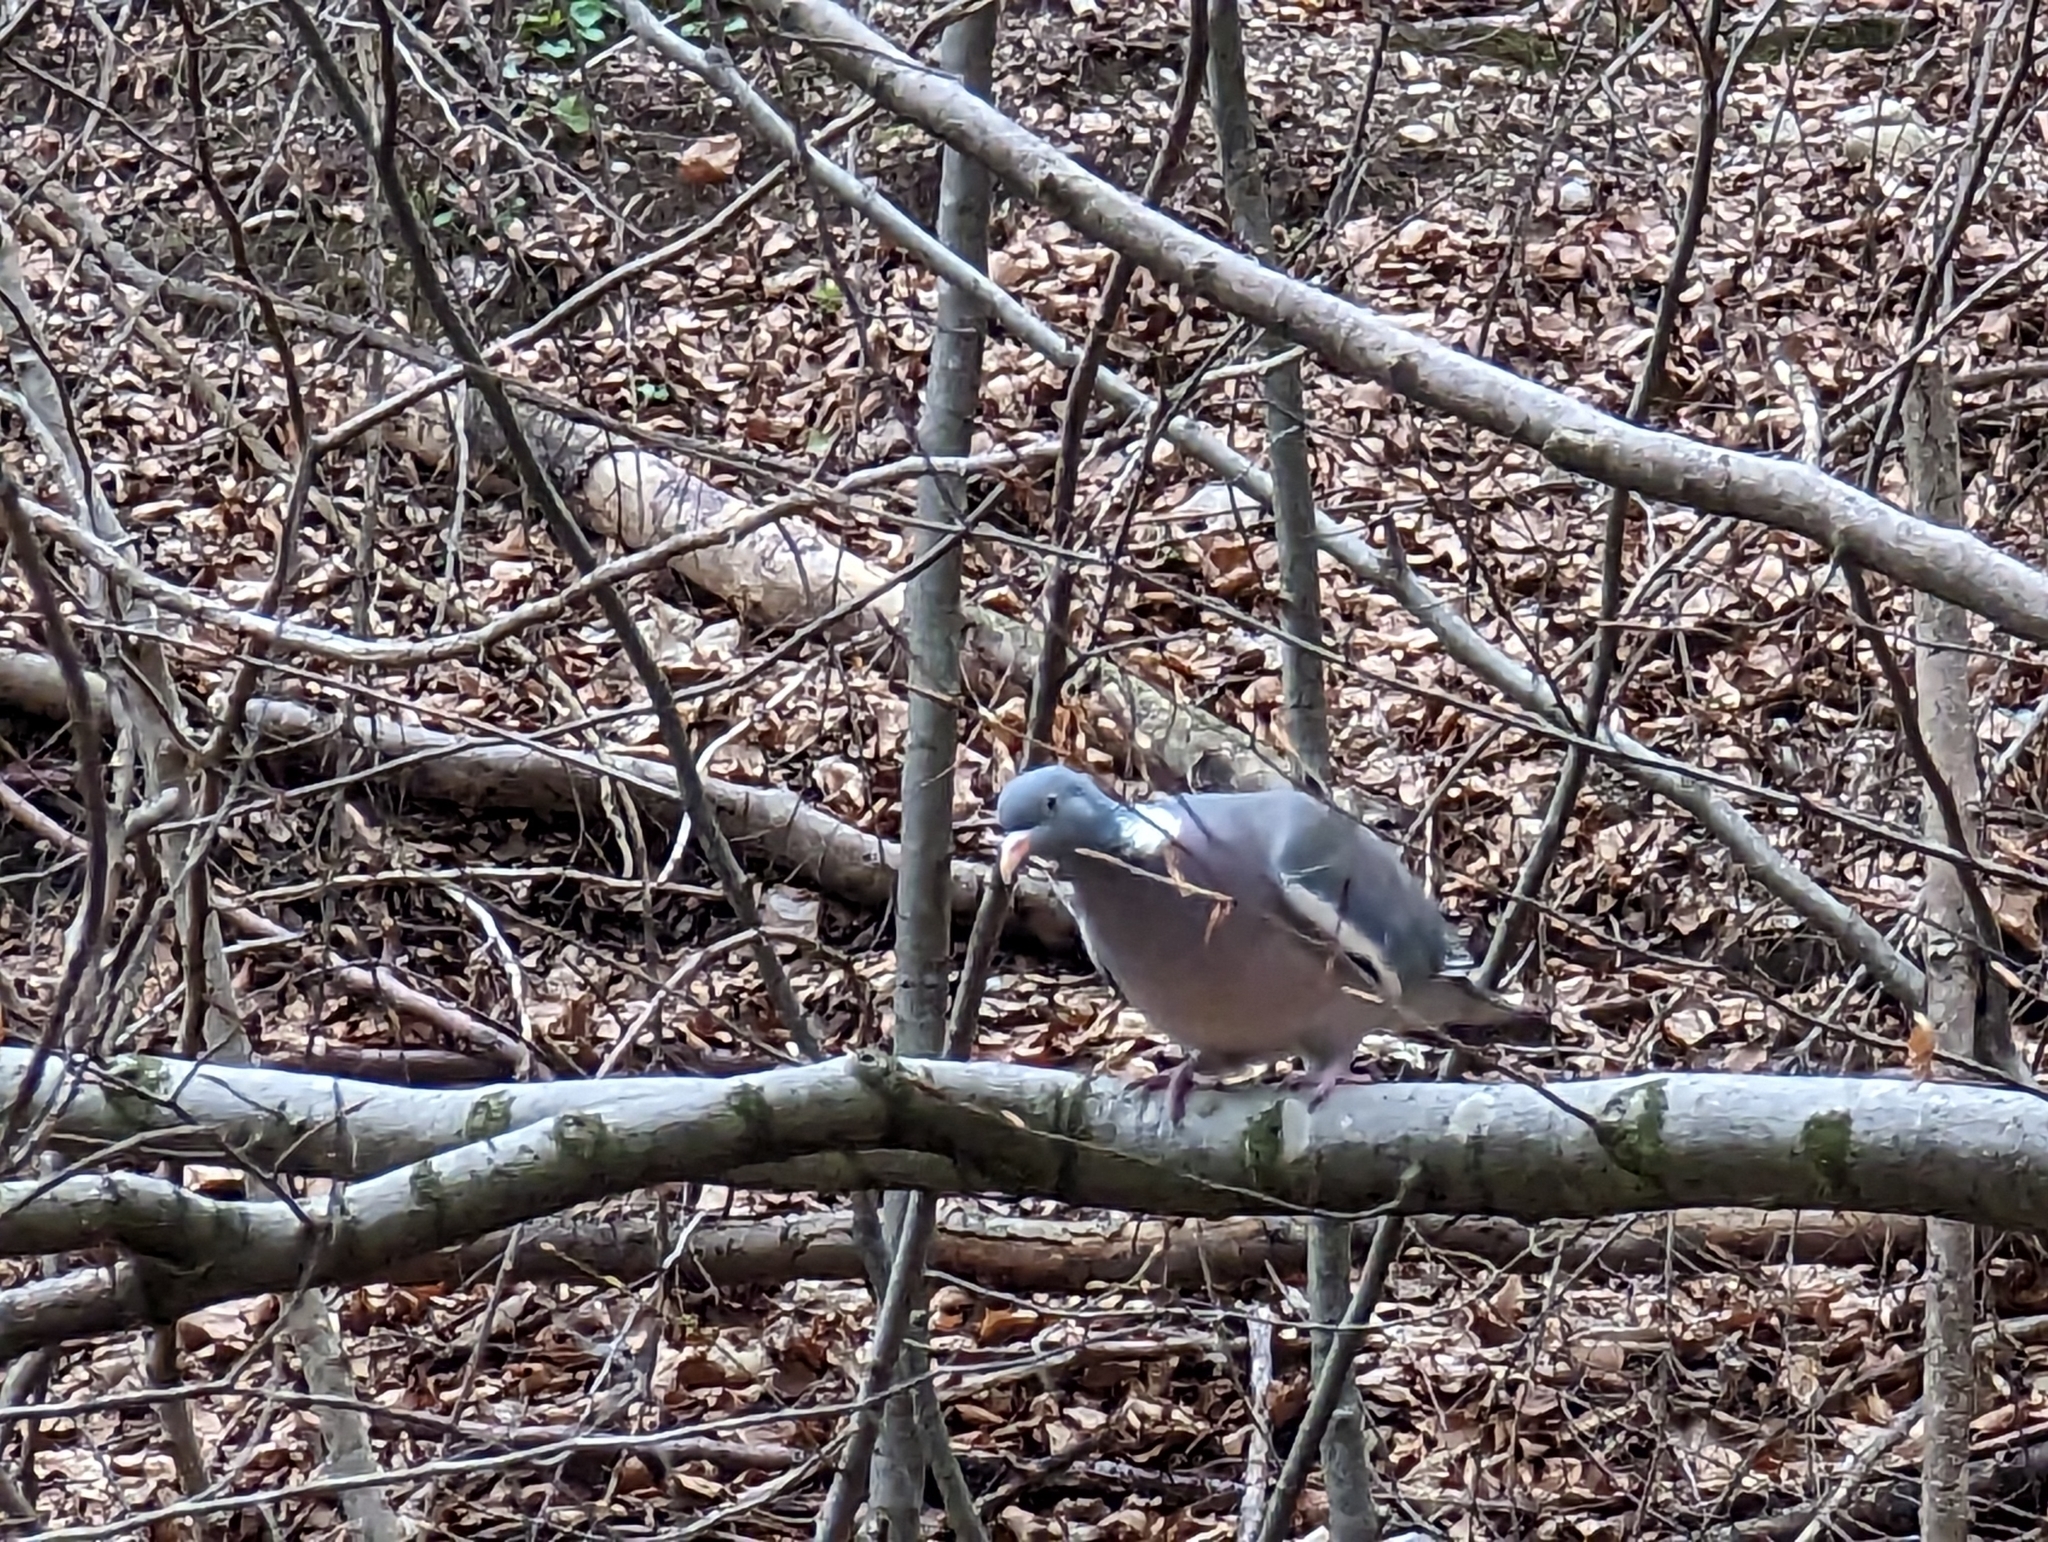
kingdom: Animalia
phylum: Chordata
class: Aves
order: Columbiformes
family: Columbidae
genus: Columba
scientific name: Columba palumbus
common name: Common wood pigeon
